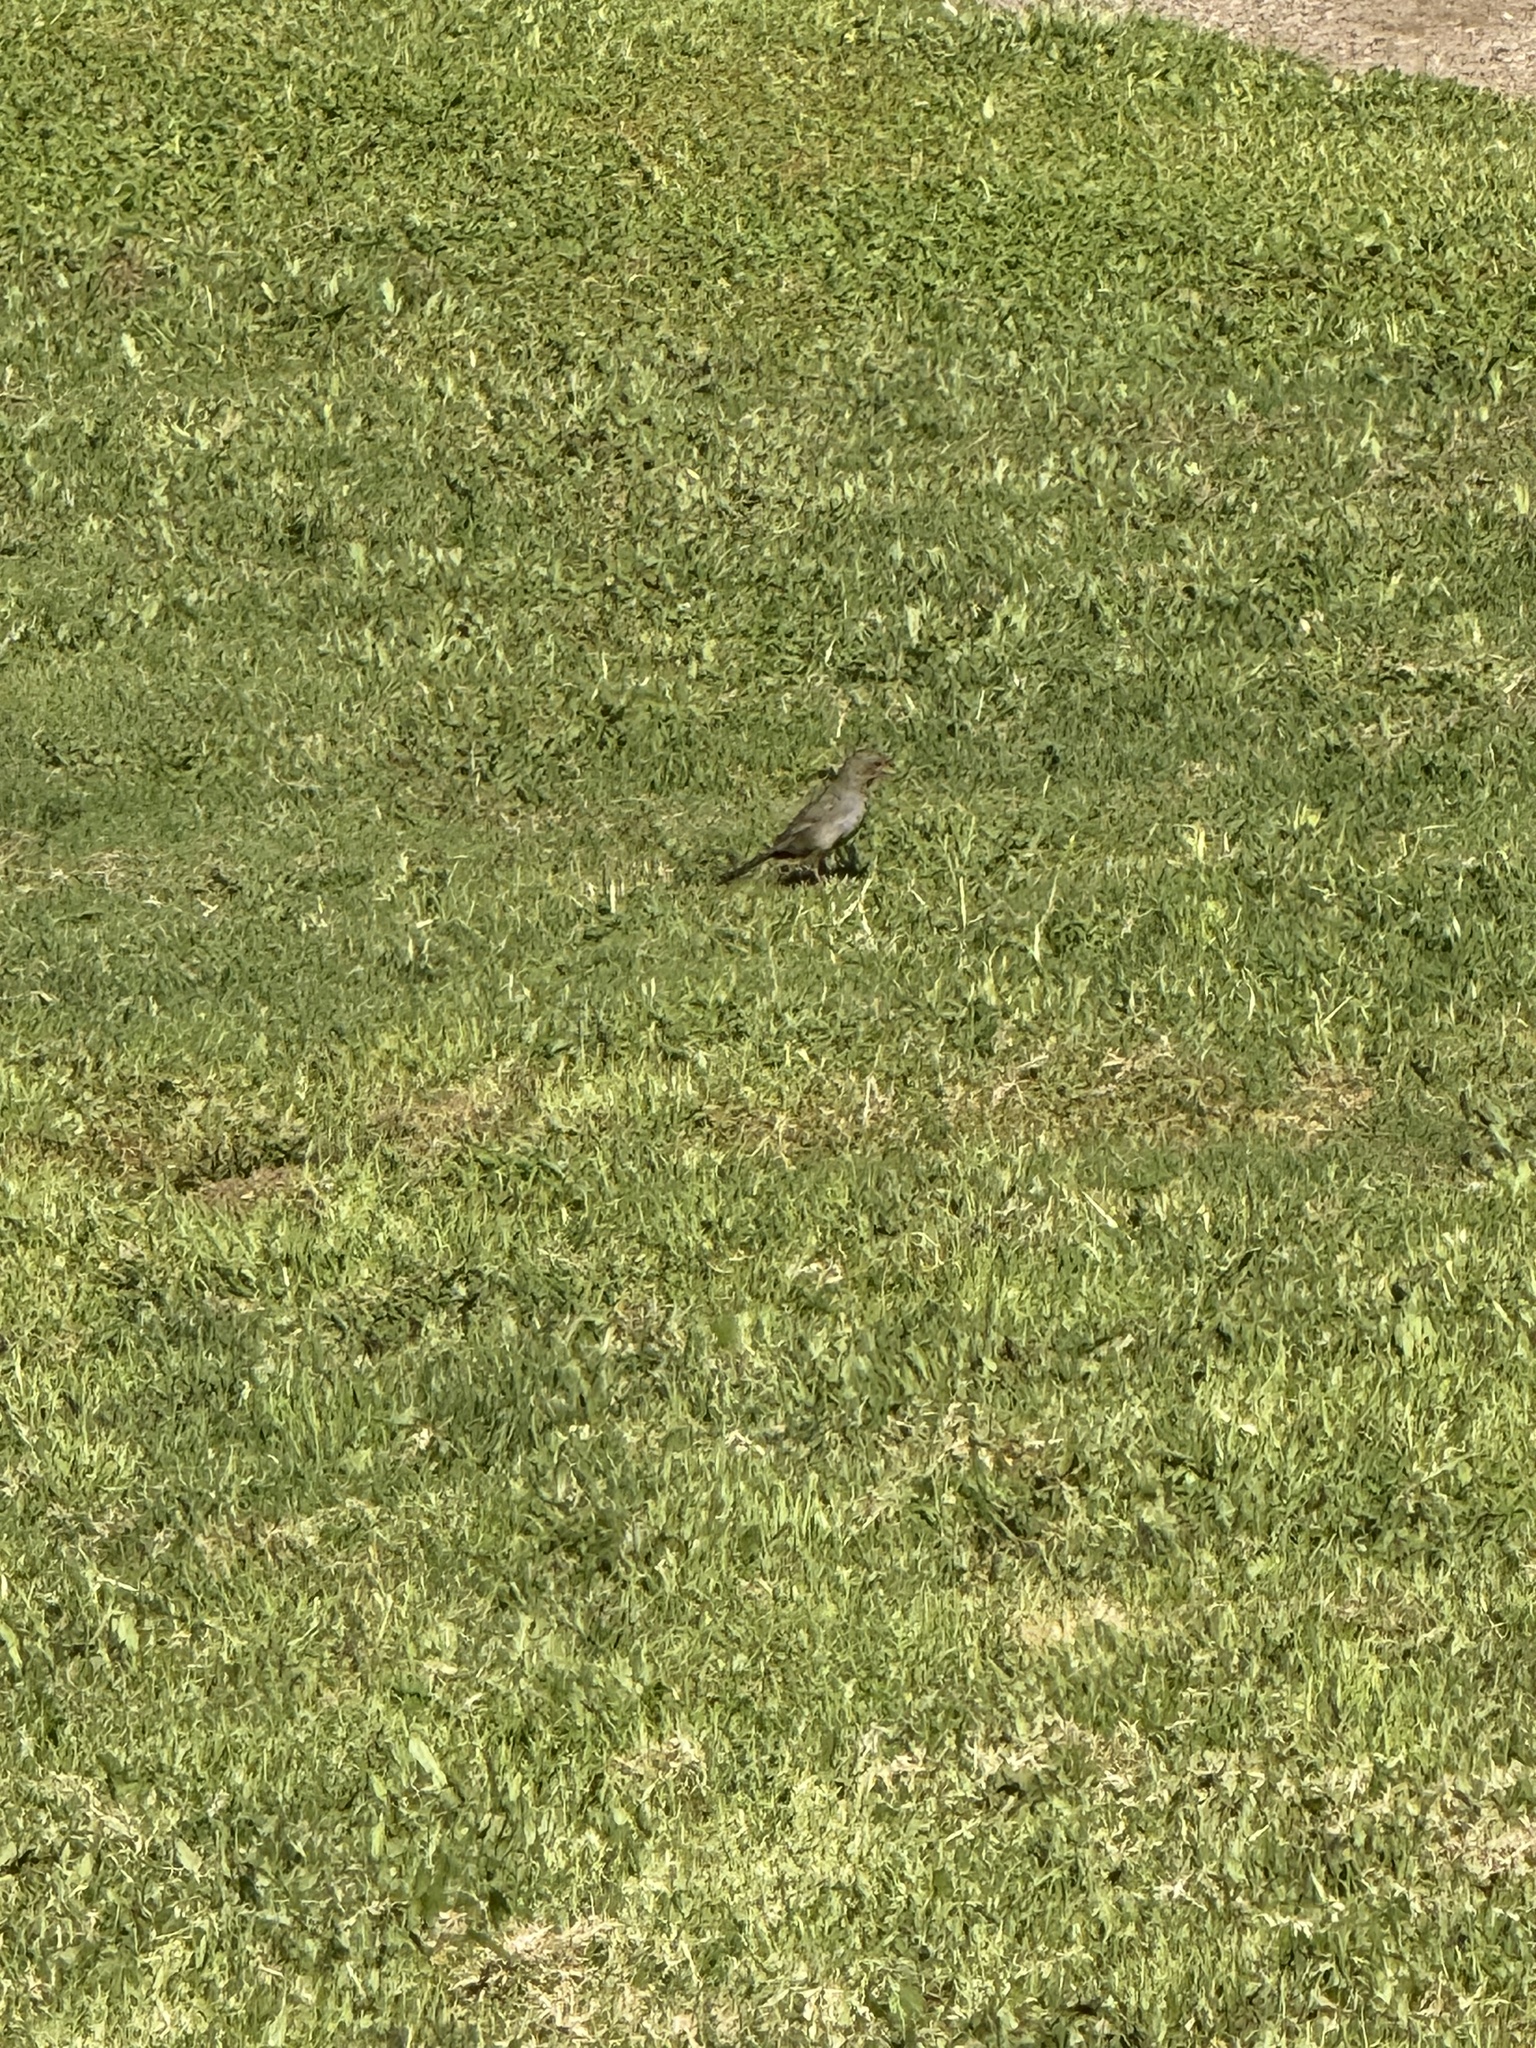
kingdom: Animalia
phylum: Chordata
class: Aves
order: Passeriformes
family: Passerellidae
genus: Melozone
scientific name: Melozone crissalis
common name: California towhee
